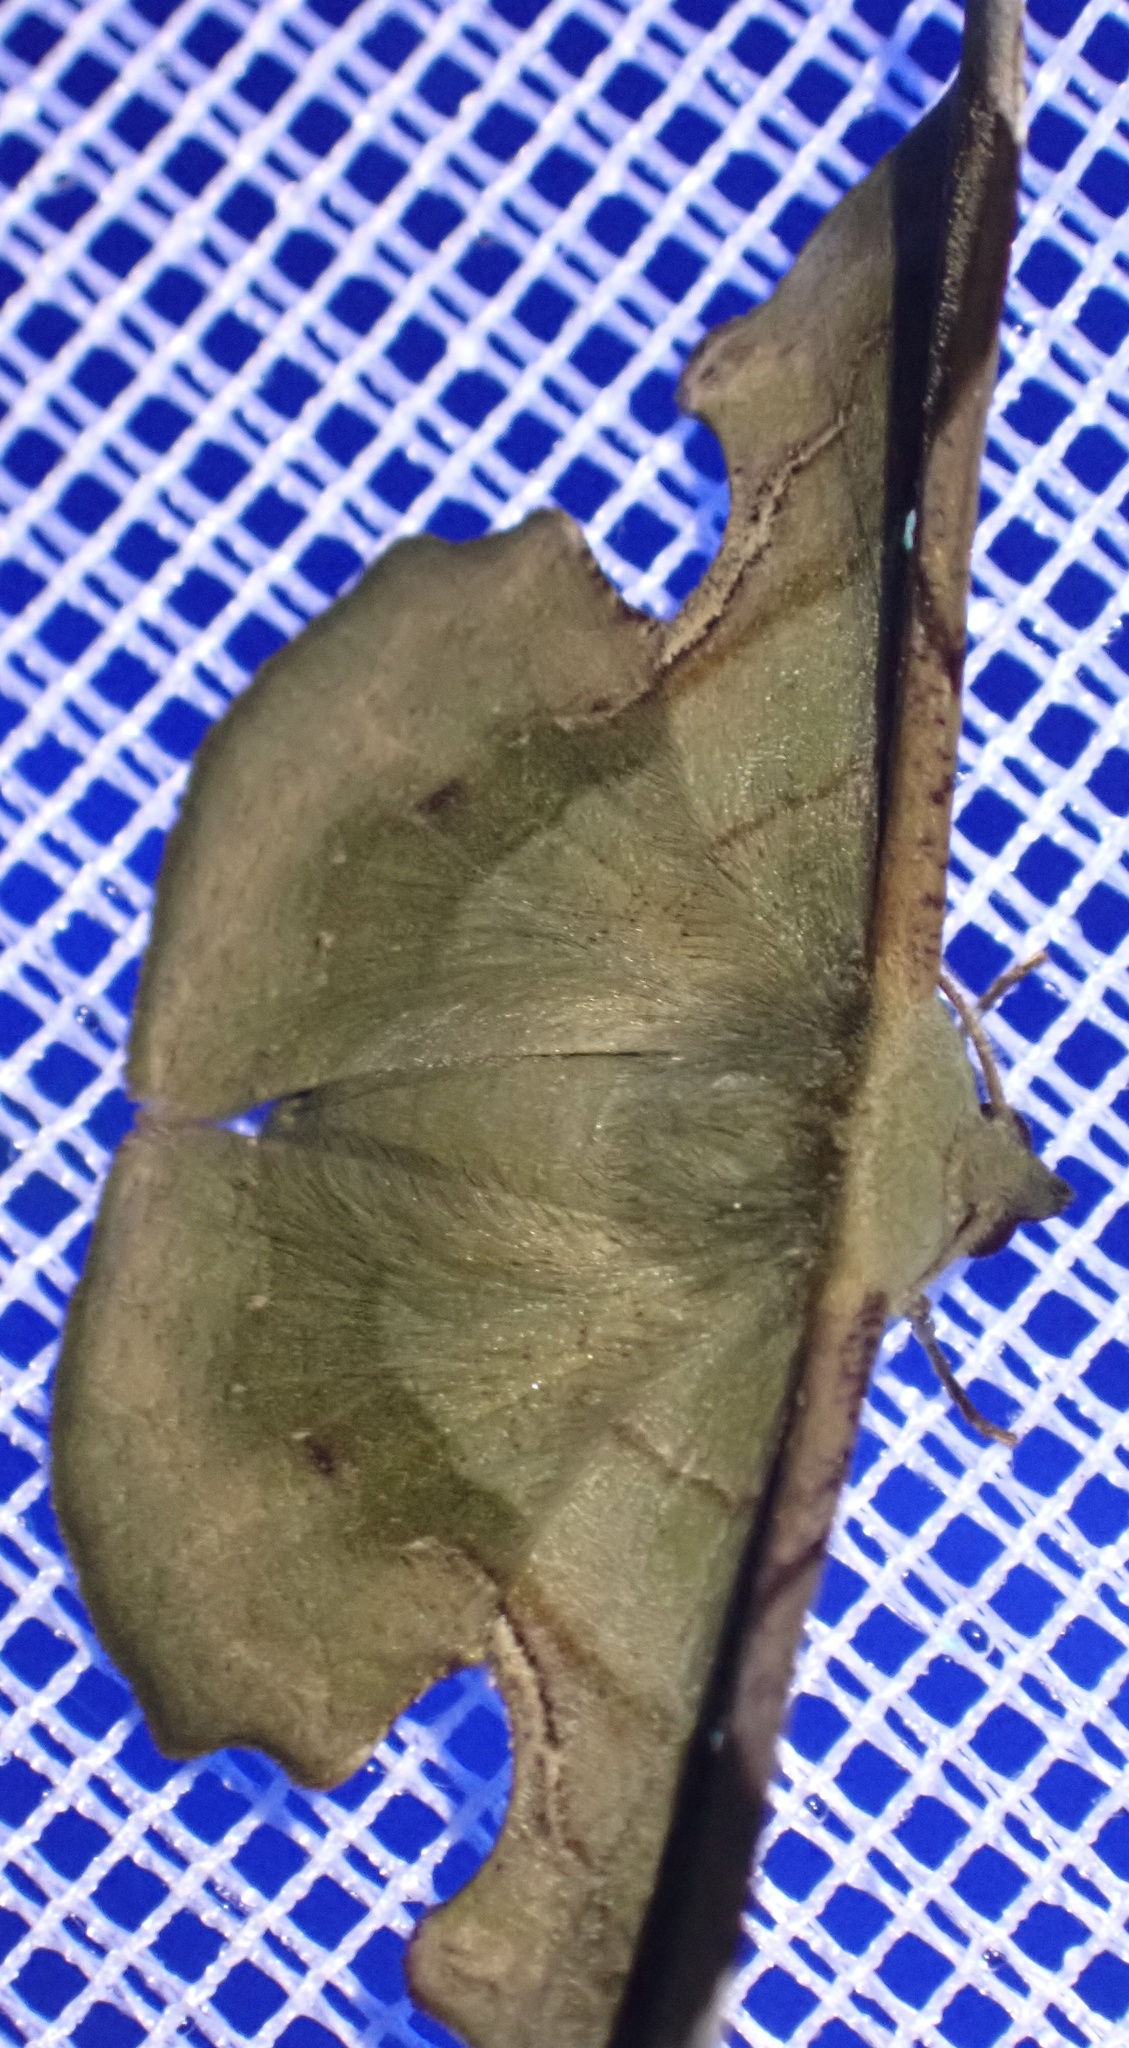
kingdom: Animalia
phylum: Arthropoda
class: Insecta
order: Lepidoptera
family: Geometridae
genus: Fascellina
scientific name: Fascellina papuensis
